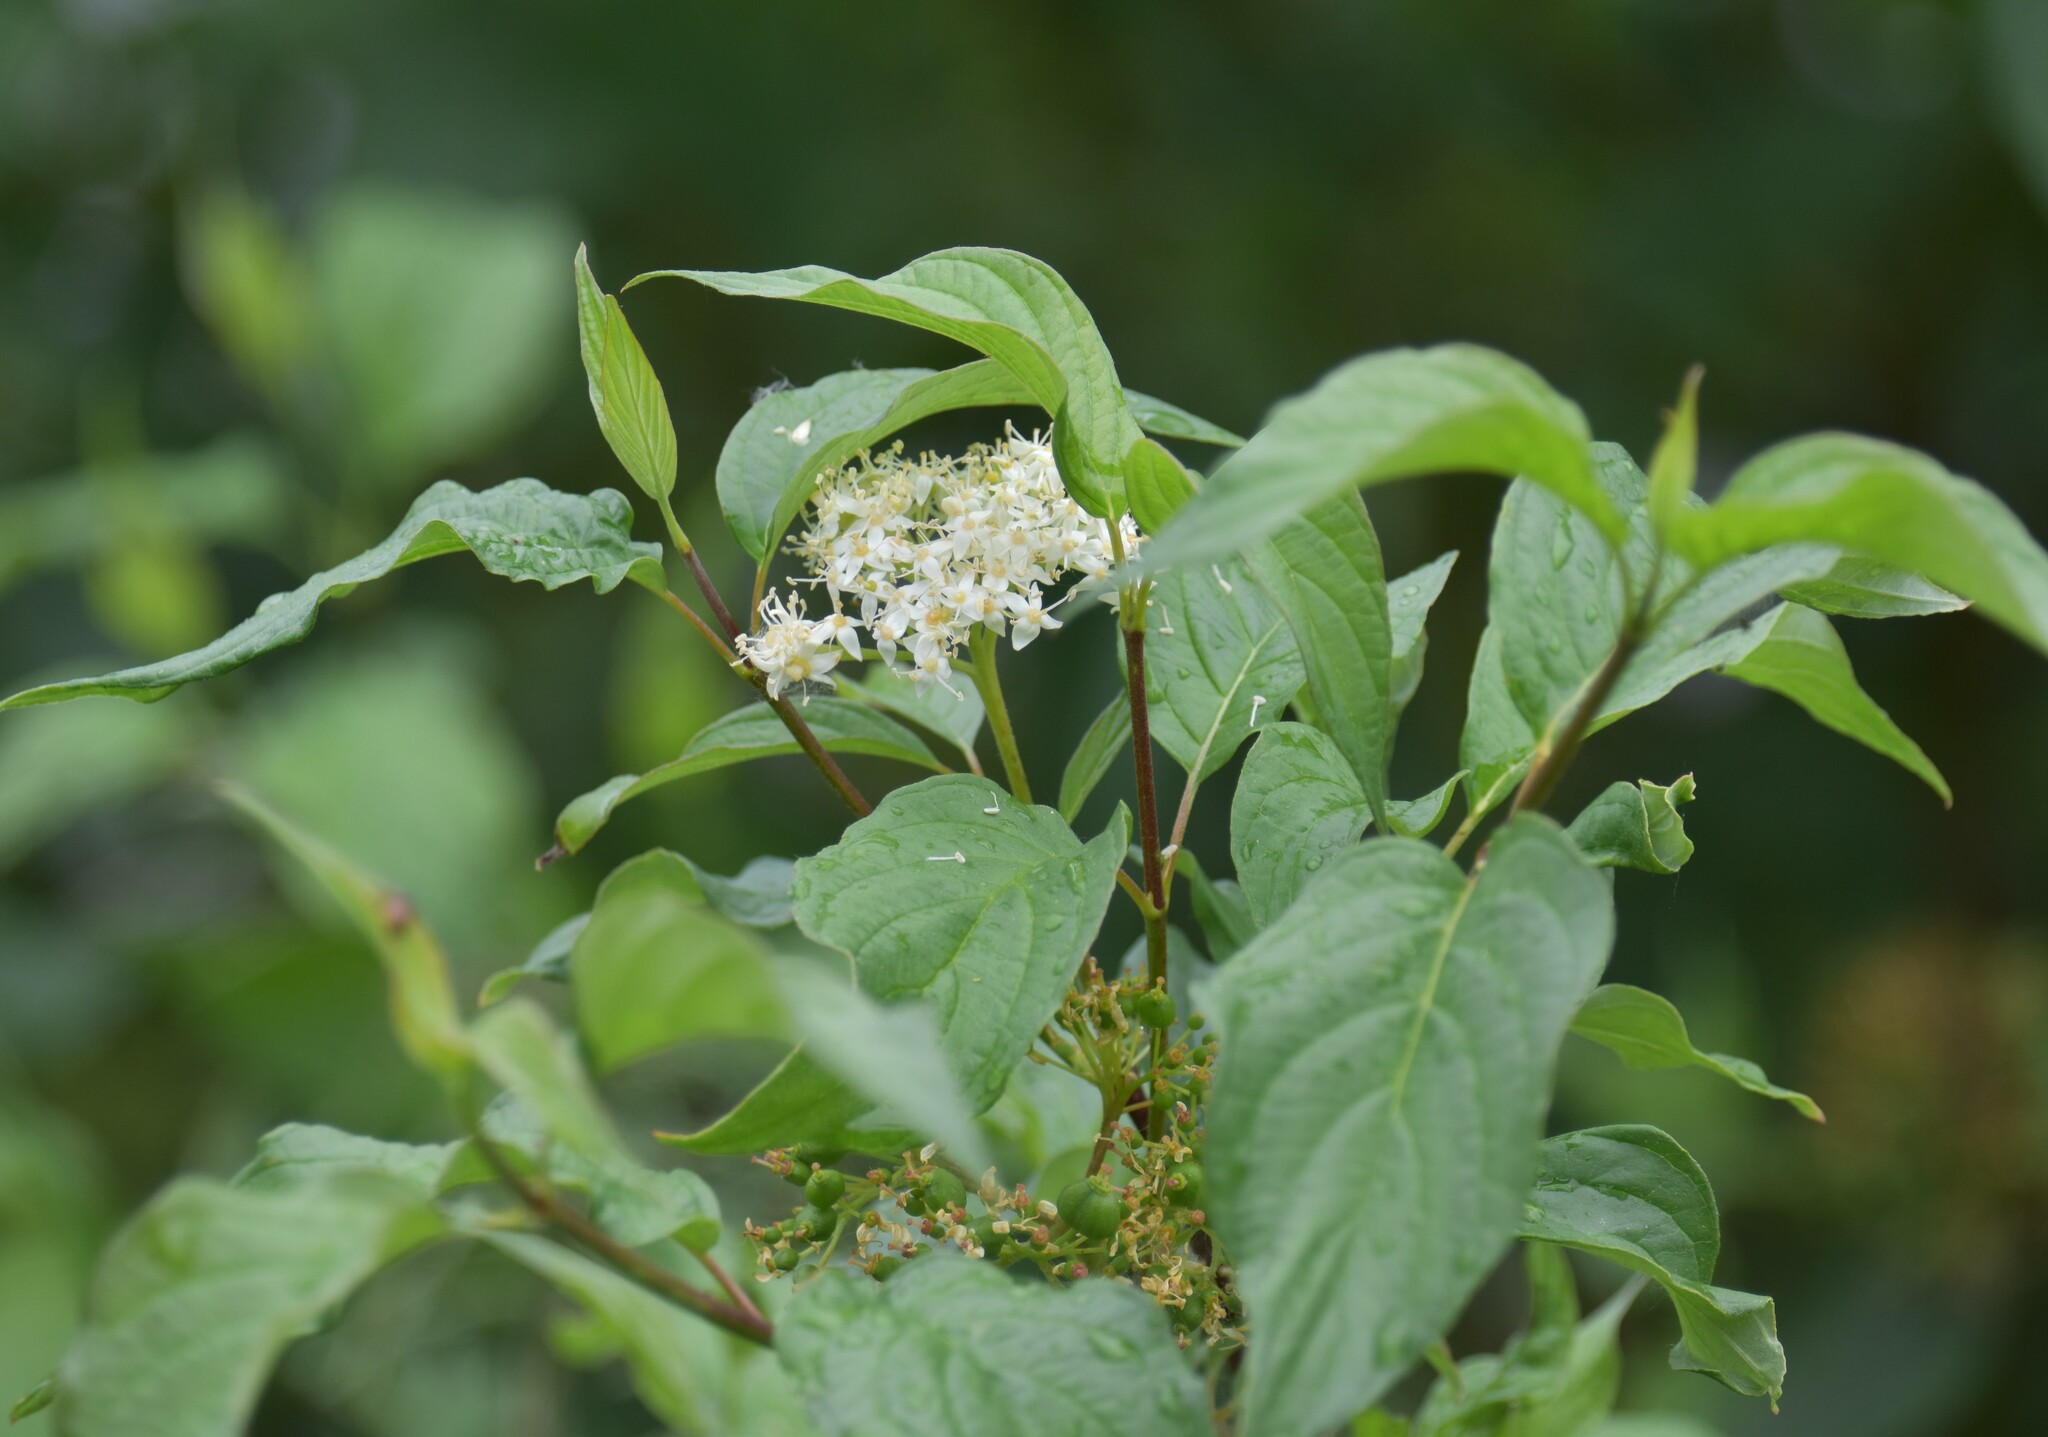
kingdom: Plantae
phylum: Tracheophyta
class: Magnoliopsida
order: Cornales
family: Cornaceae
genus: Cornus
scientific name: Cornus sericea
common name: Red-osier dogwood
